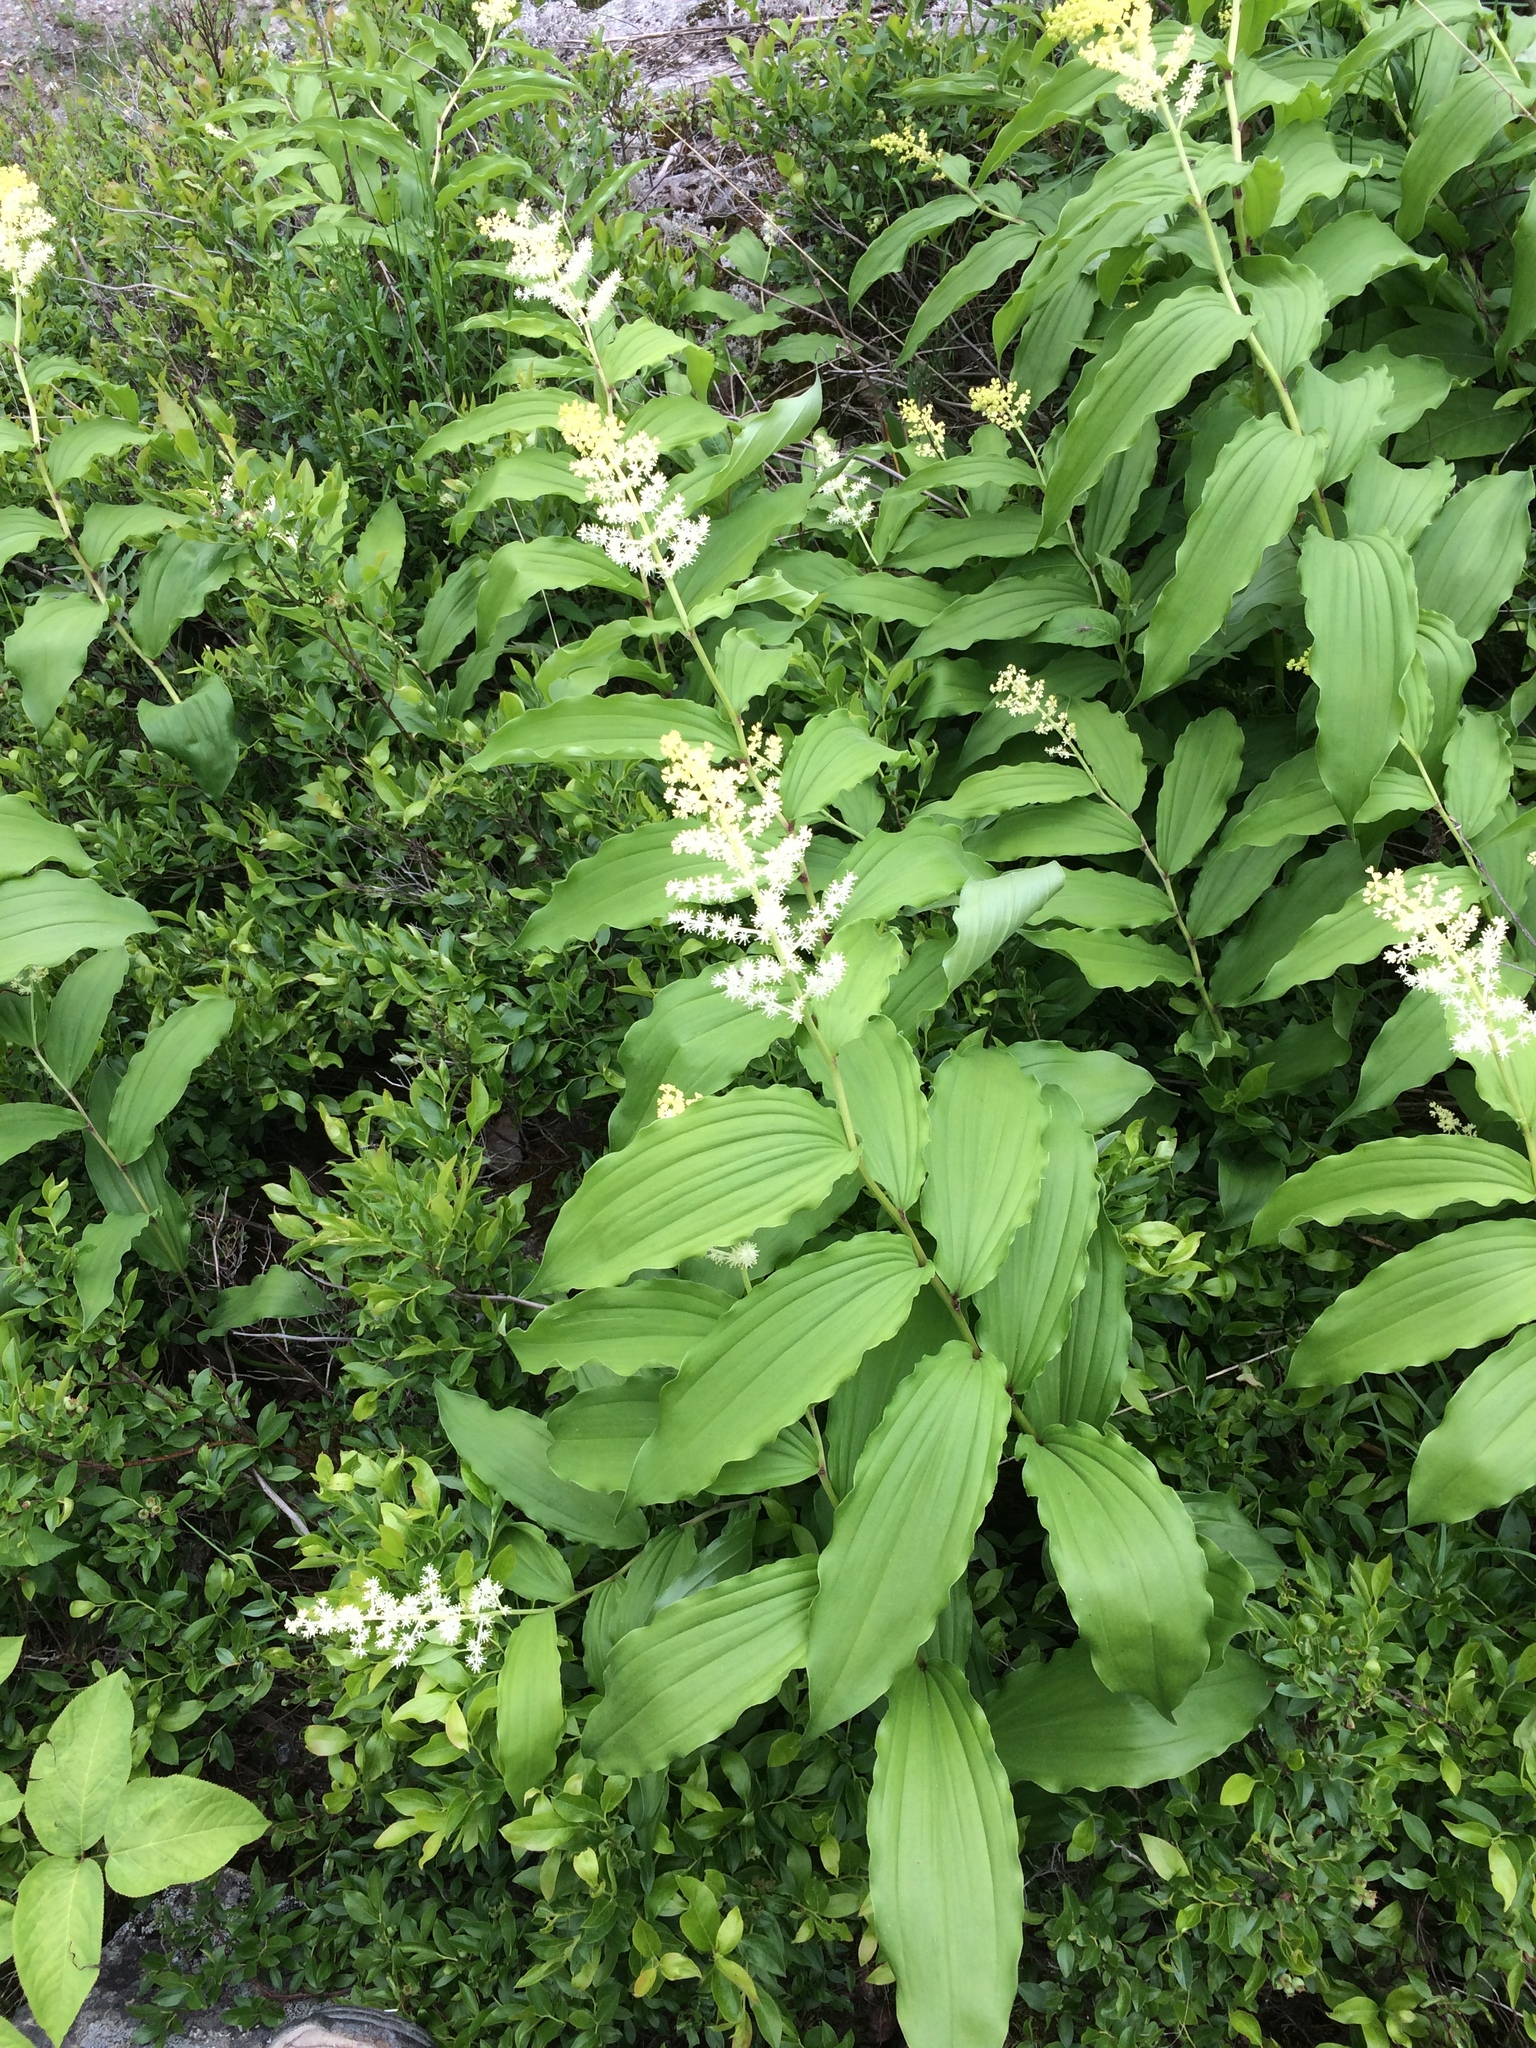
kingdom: Plantae
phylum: Tracheophyta
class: Liliopsida
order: Asparagales
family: Asparagaceae
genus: Maianthemum
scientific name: Maianthemum racemosum
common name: False spikenard
